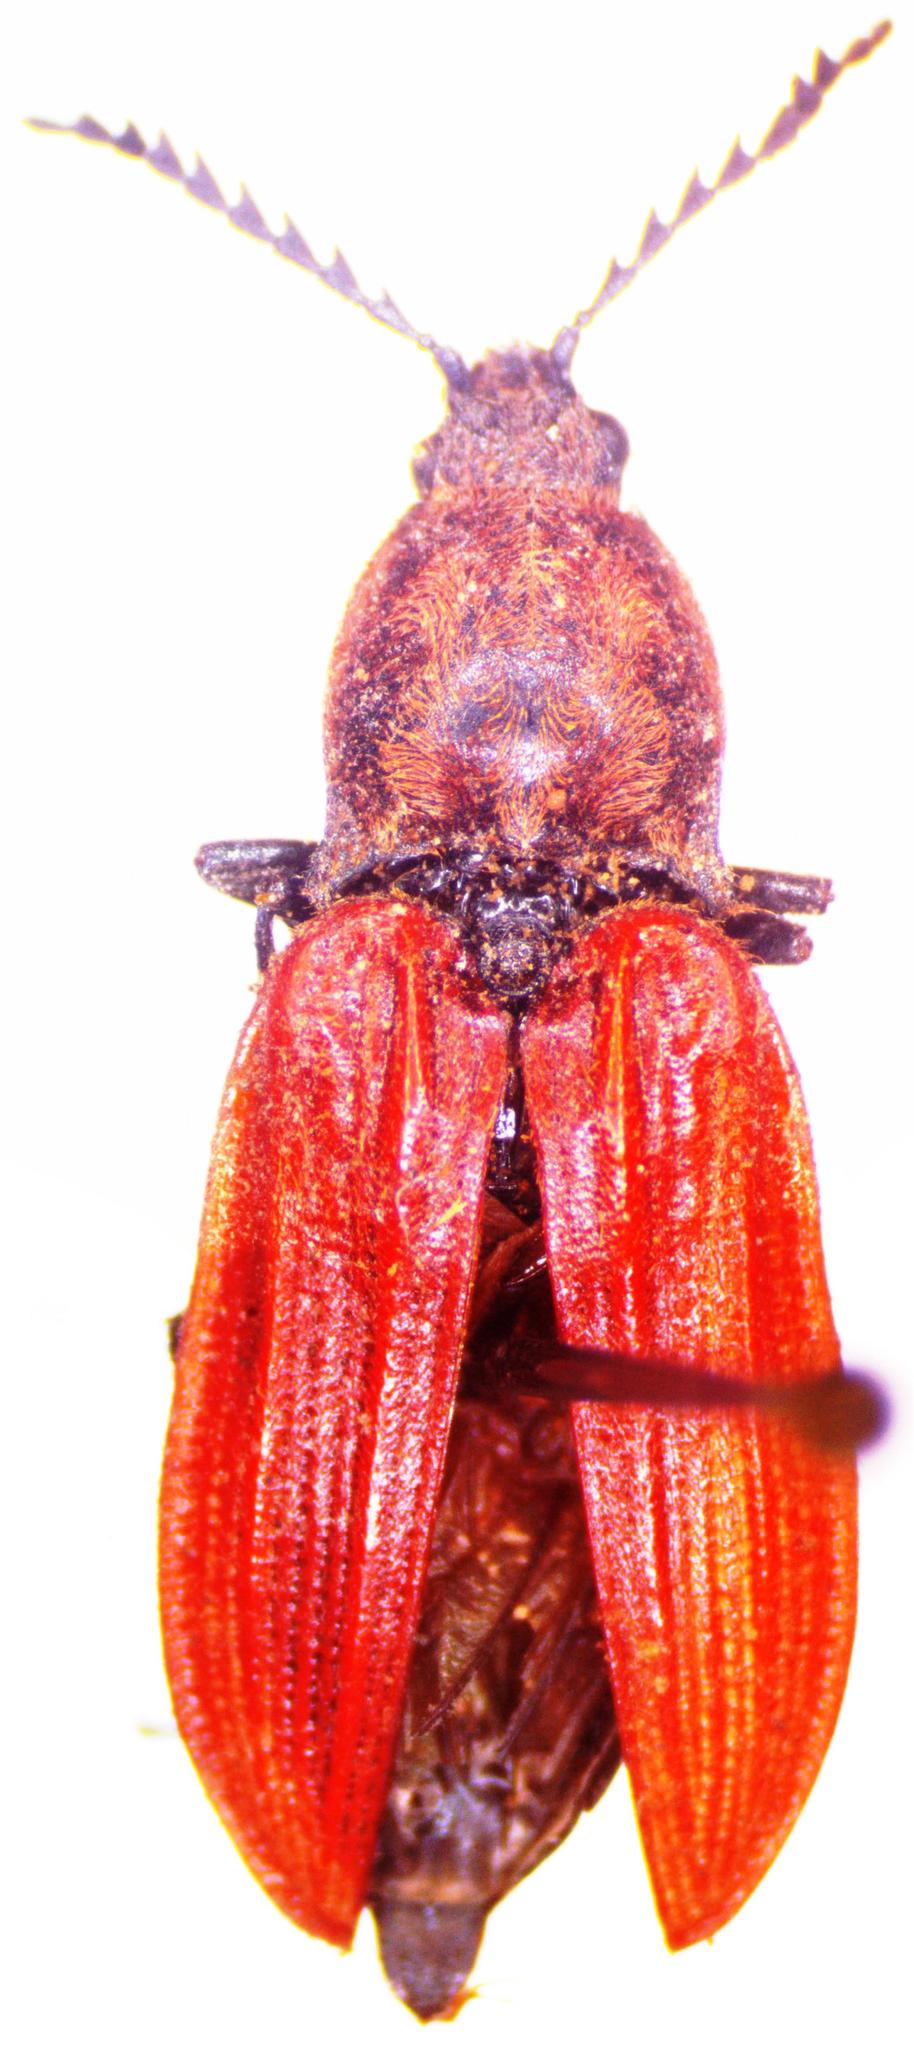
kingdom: Animalia
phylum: Arthropoda
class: Insecta
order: Coleoptera
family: Elateridae
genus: Anostirus
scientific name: Anostirus purpureus
